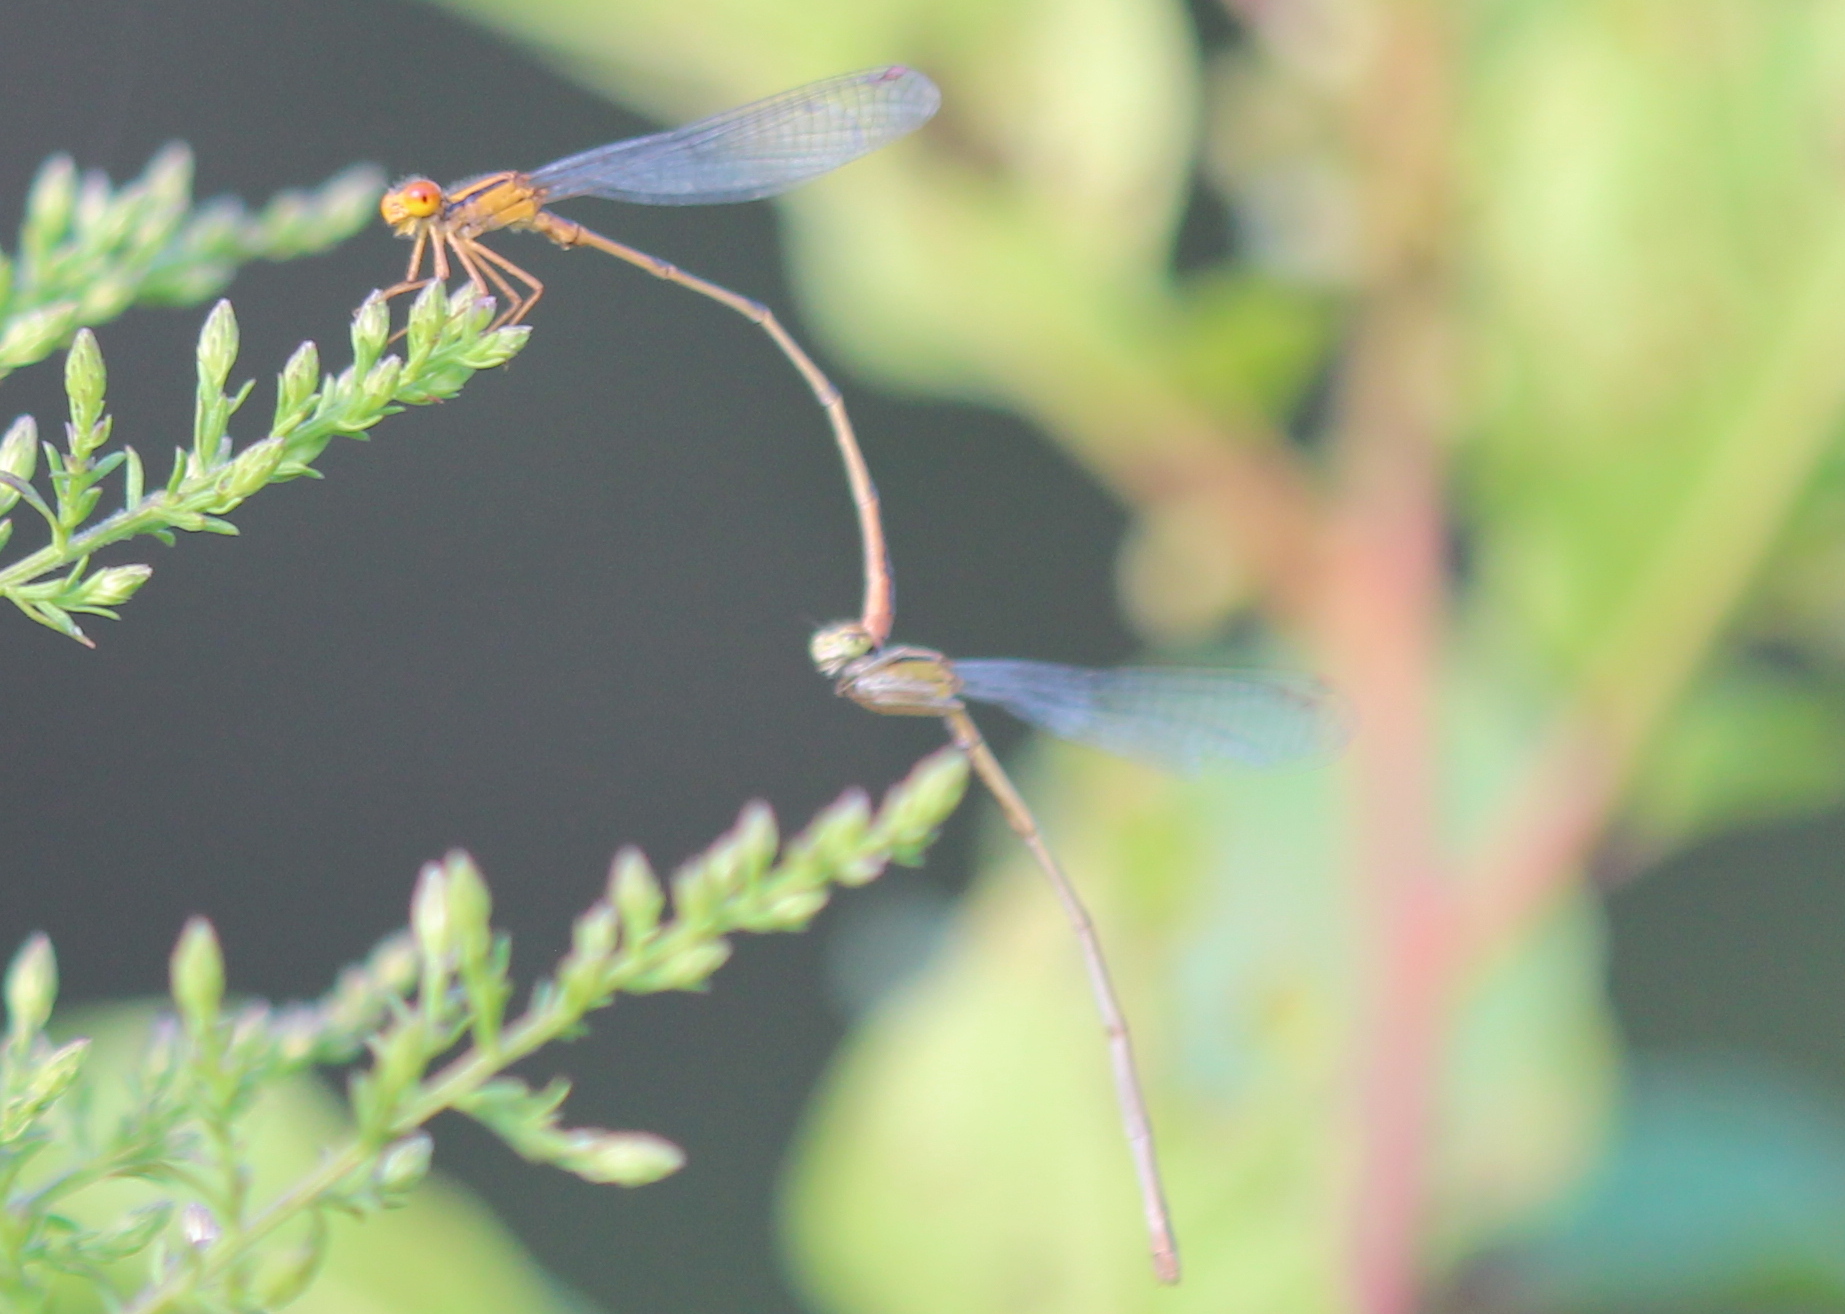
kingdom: Animalia
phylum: Arthropoda
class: Insecta
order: Odonata
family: Coenagrionidae
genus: Enallagma
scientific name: Enallagma signatum
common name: Orange bluet
